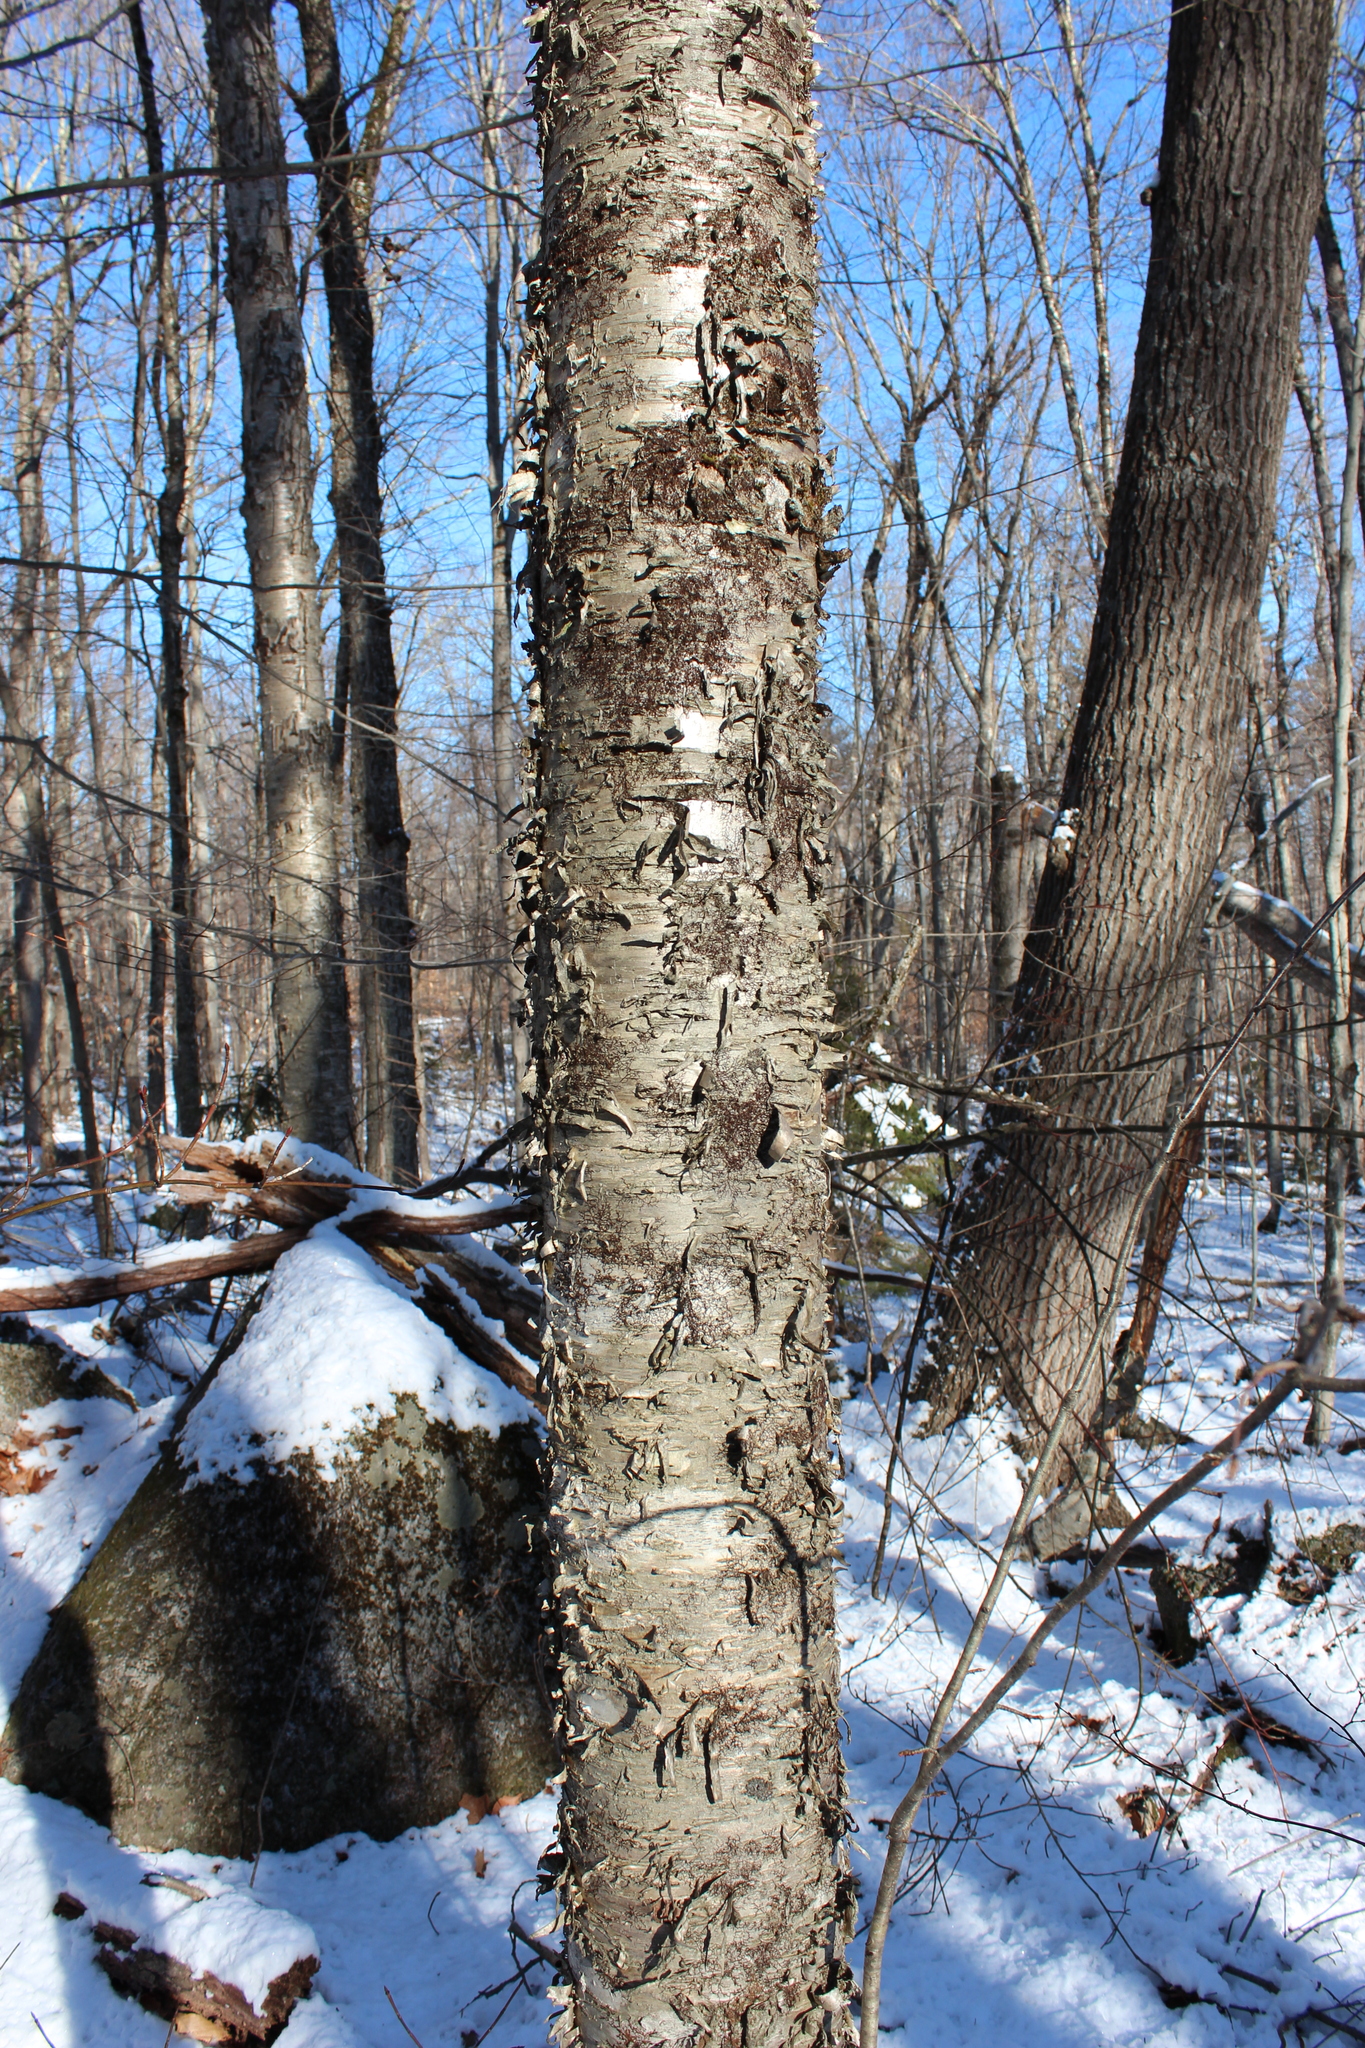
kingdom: Plantae
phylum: Tracheophyta
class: Magnoliopsida
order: Fagales
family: Betulaceae
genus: Betula
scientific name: Betula alleghaniensis
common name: Yellow birch
